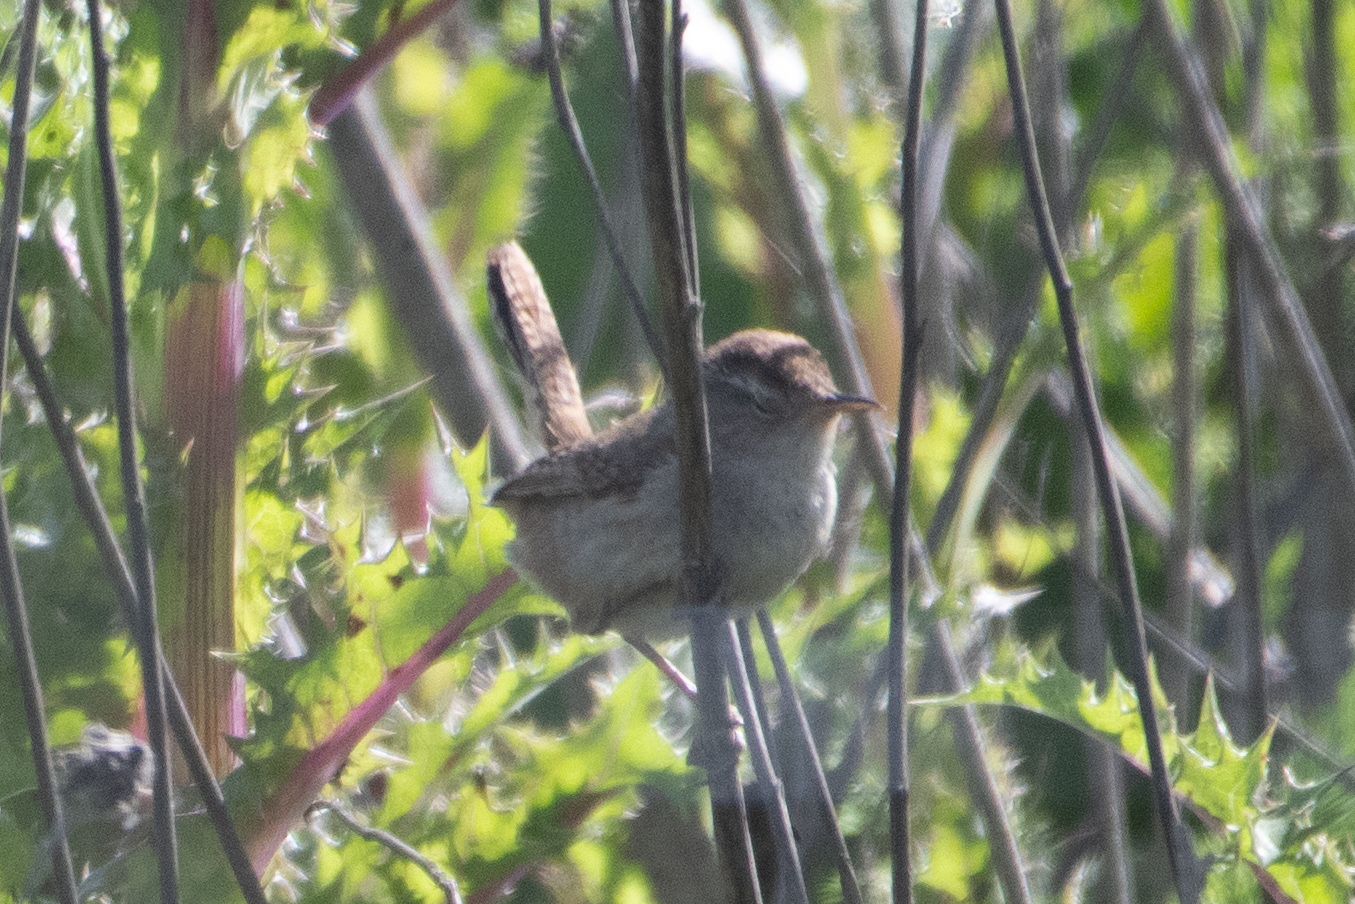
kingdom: Animalia
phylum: Chordata
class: Aves
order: Passeriformes
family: Troglodytidae
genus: Cistothorus
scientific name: Cistothorus palustris
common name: Marsh wren
